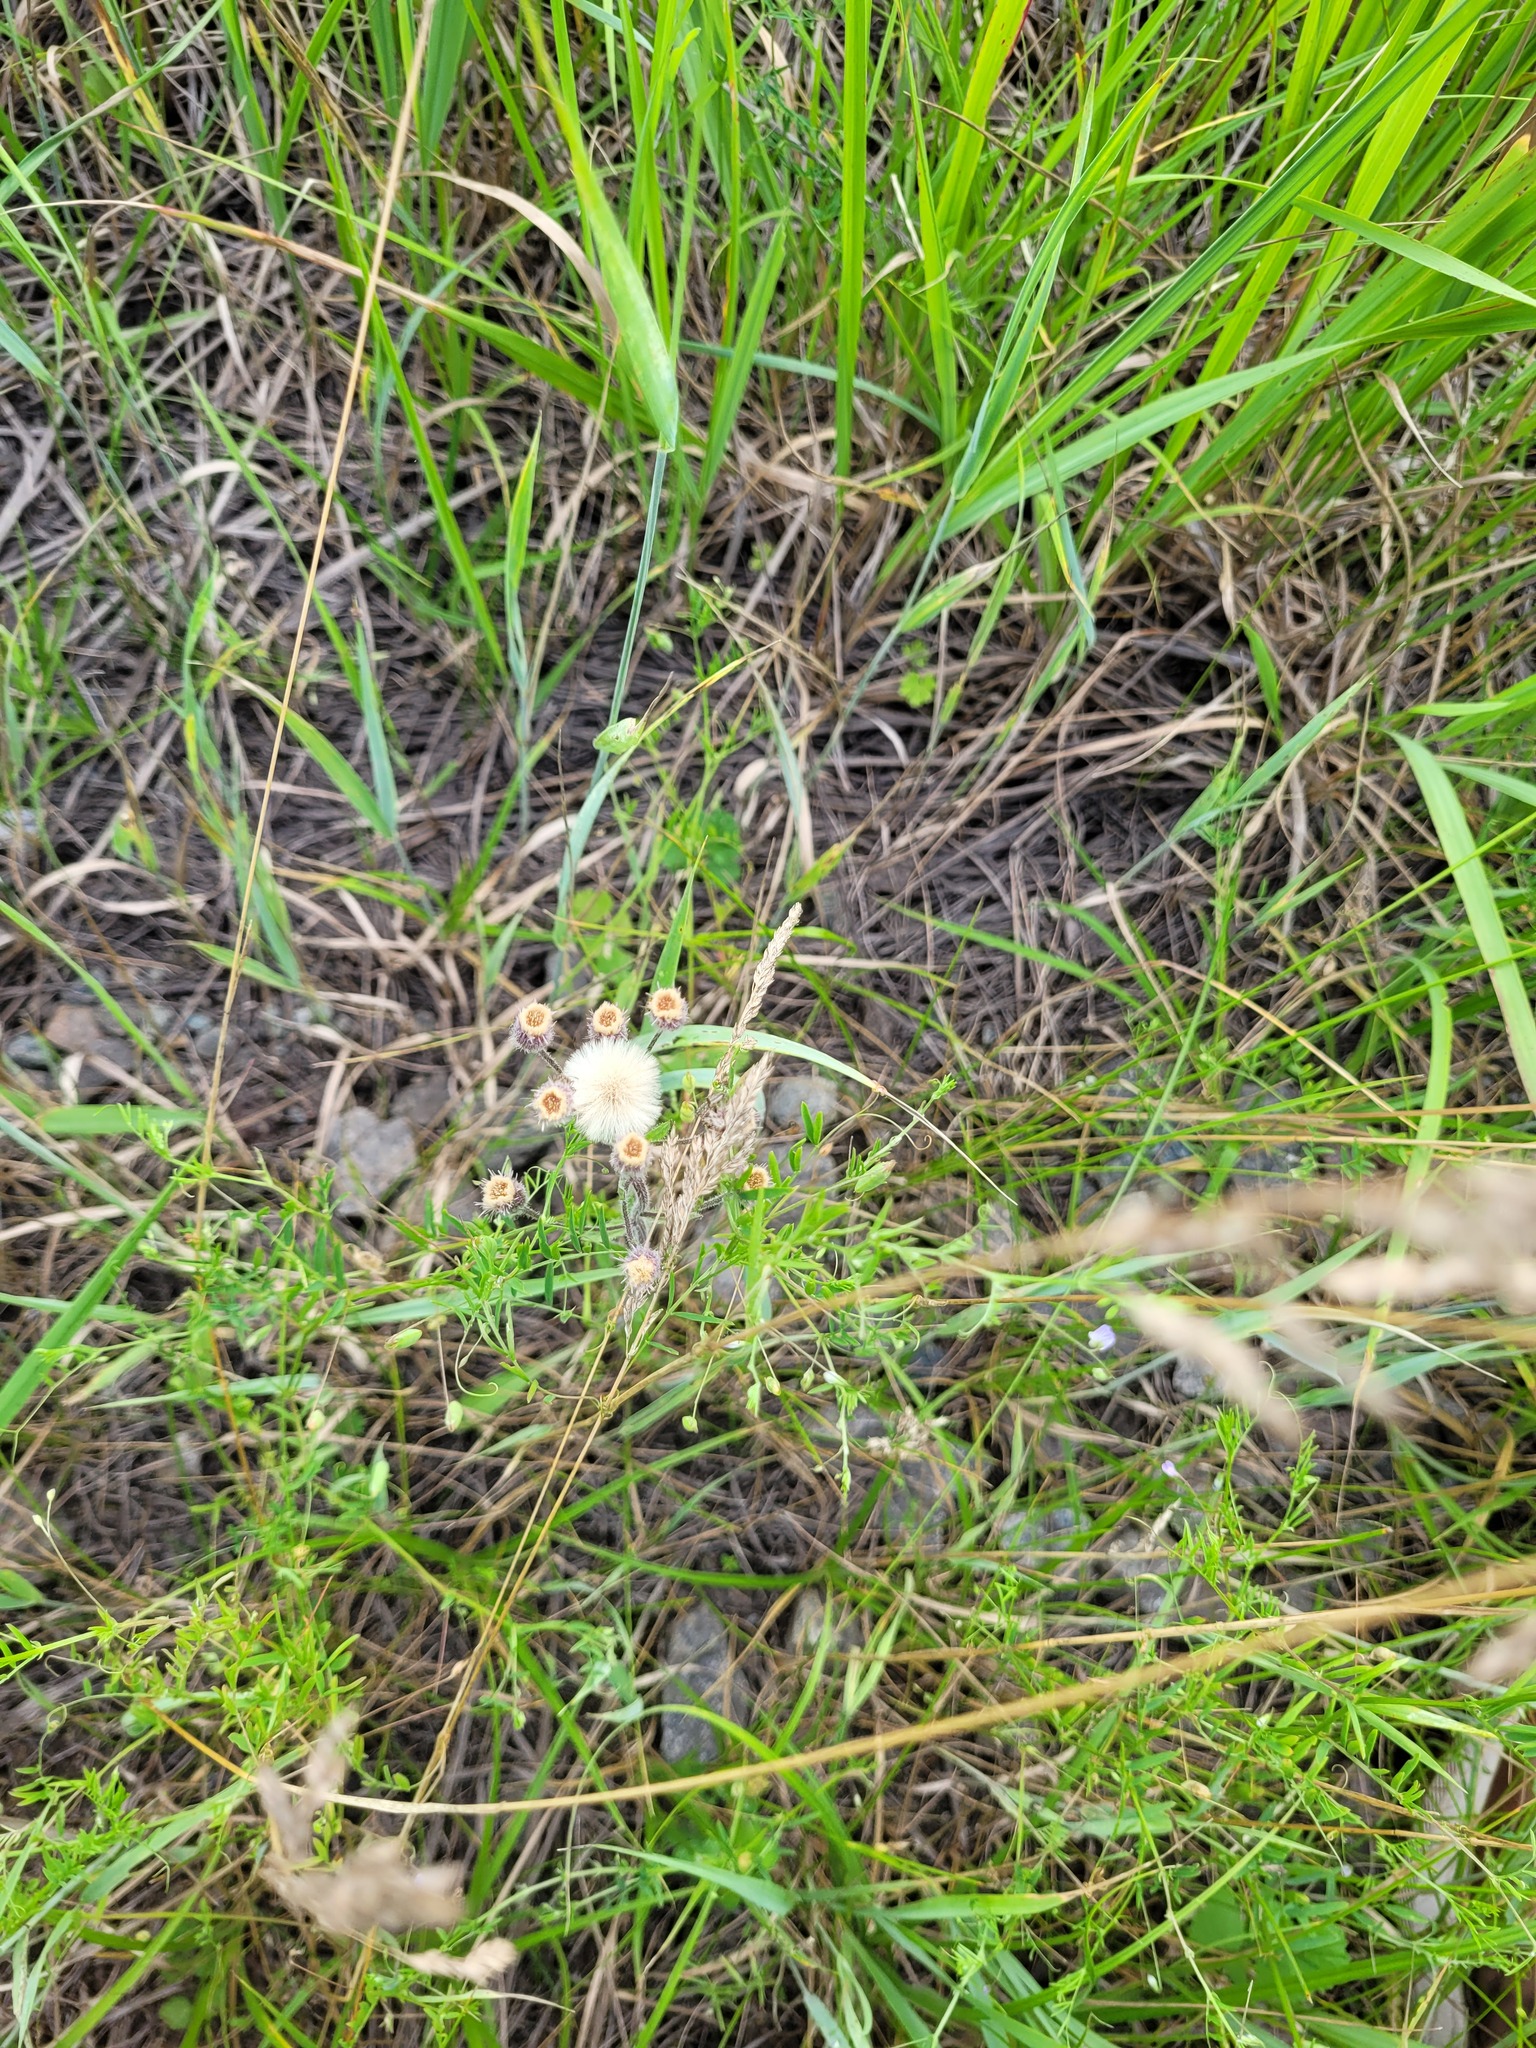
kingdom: Plantae
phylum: Tracheophyta
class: Magnoliopsida
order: Asterales
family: Asteraceae
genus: Erigeron
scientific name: Erigeron acris
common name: Blue fleabane
